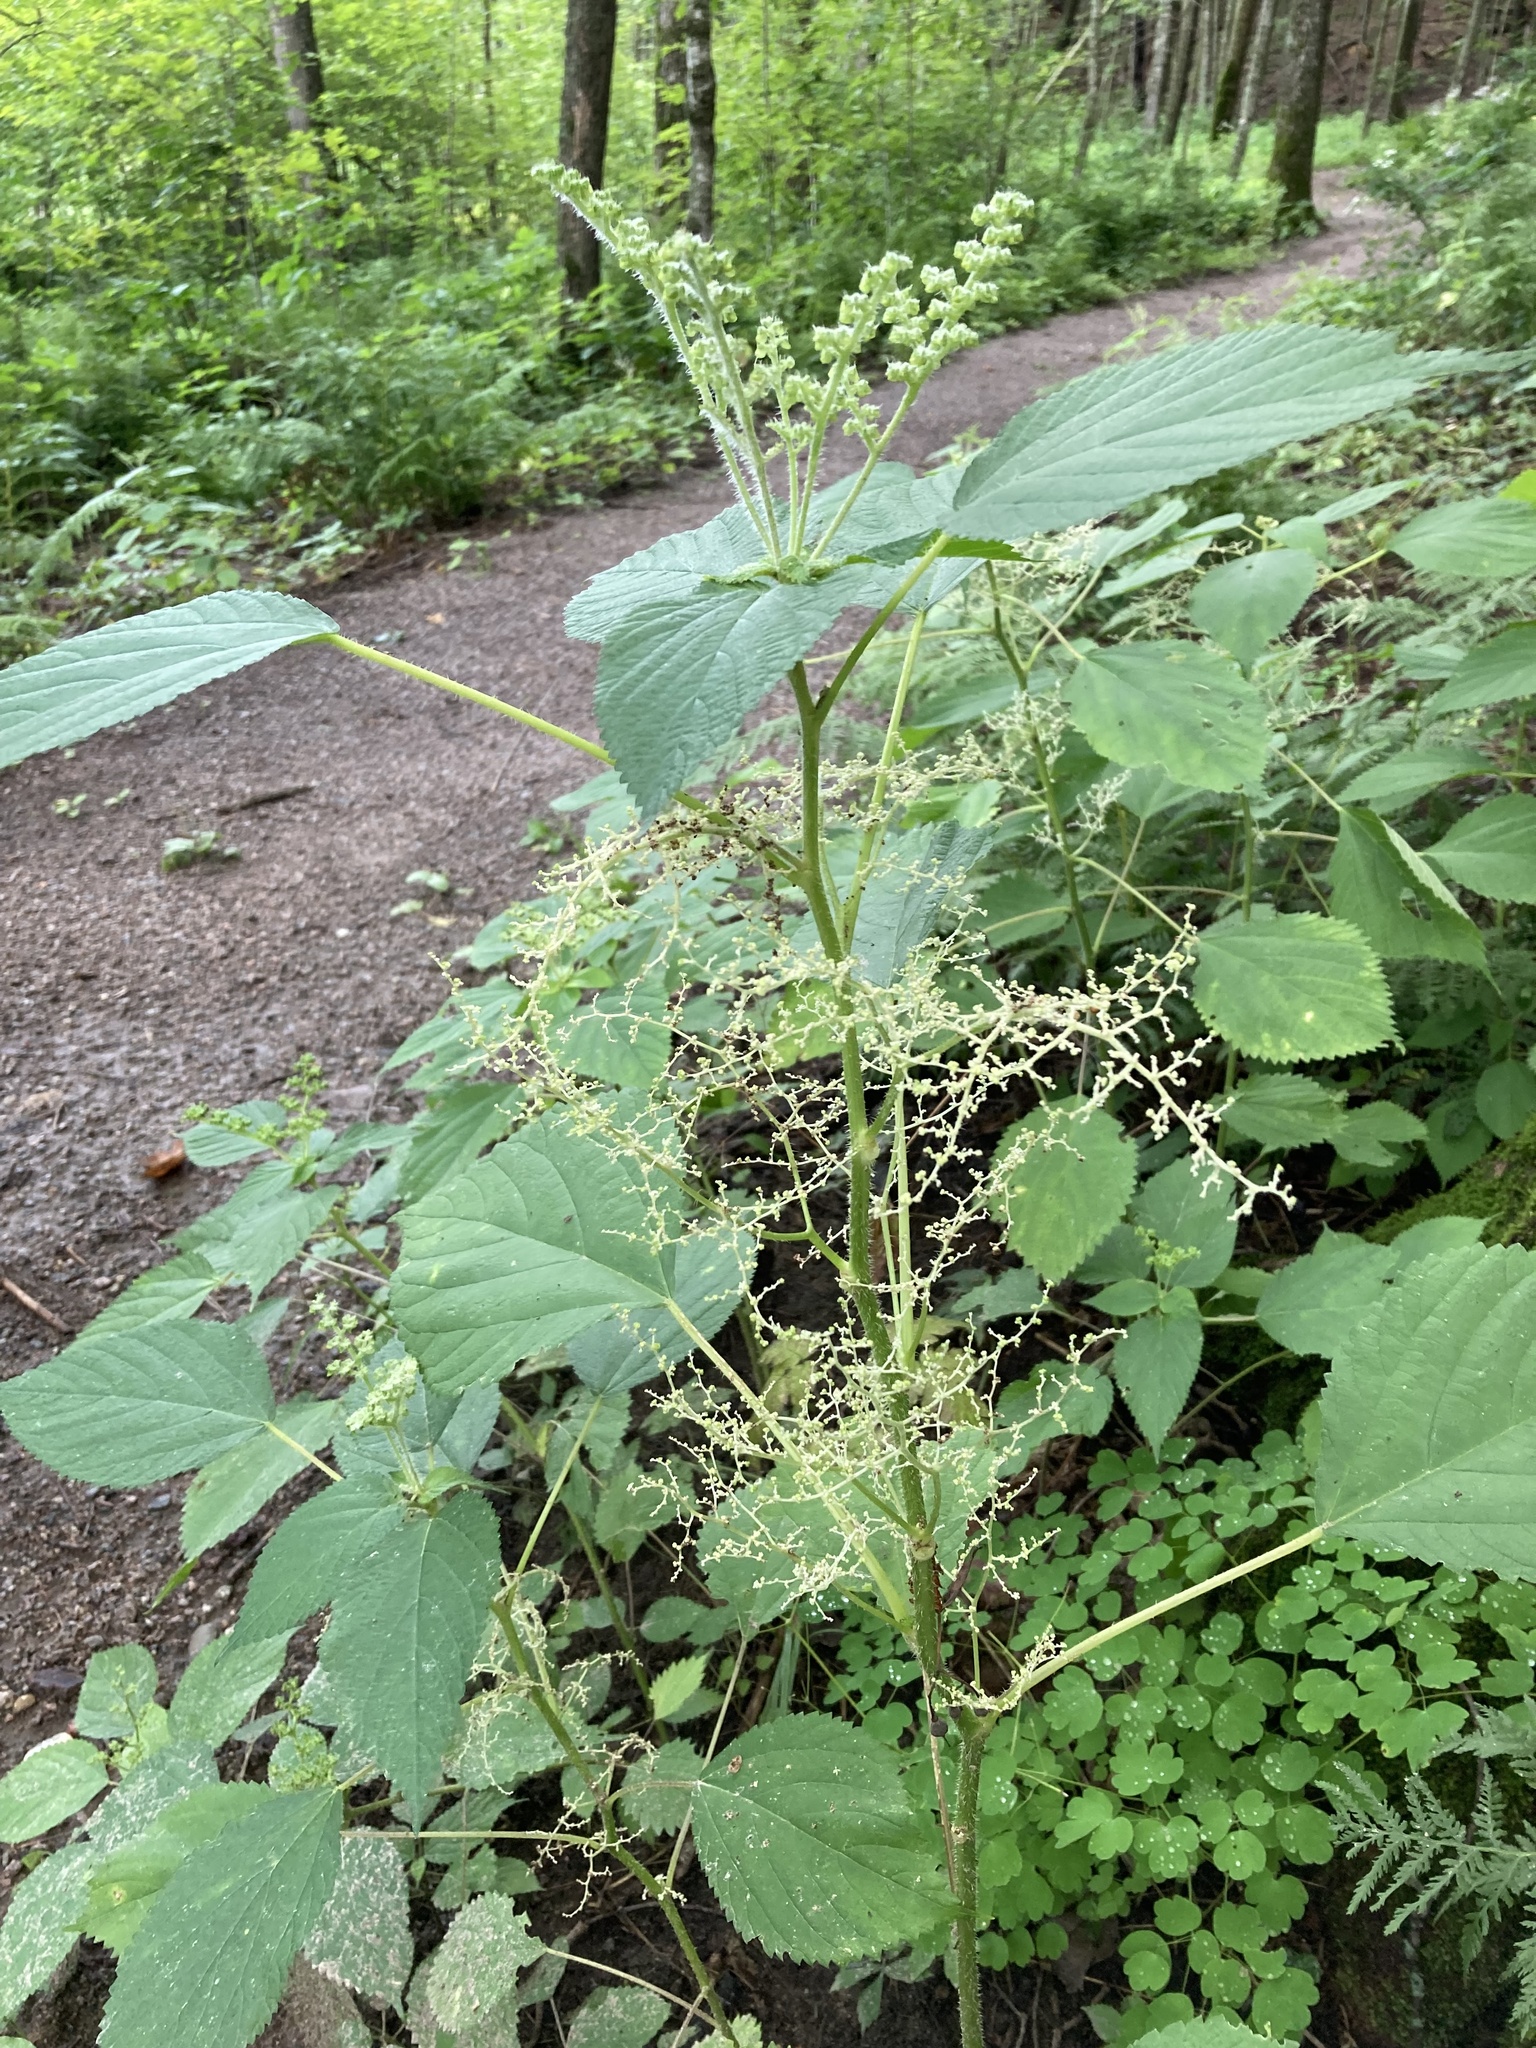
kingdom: Plantae
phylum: Tracheophyta
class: Magnoliopsida
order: Rosales
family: Urticaceae
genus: Laportea
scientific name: Laportea canadensis
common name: Canada nettle
